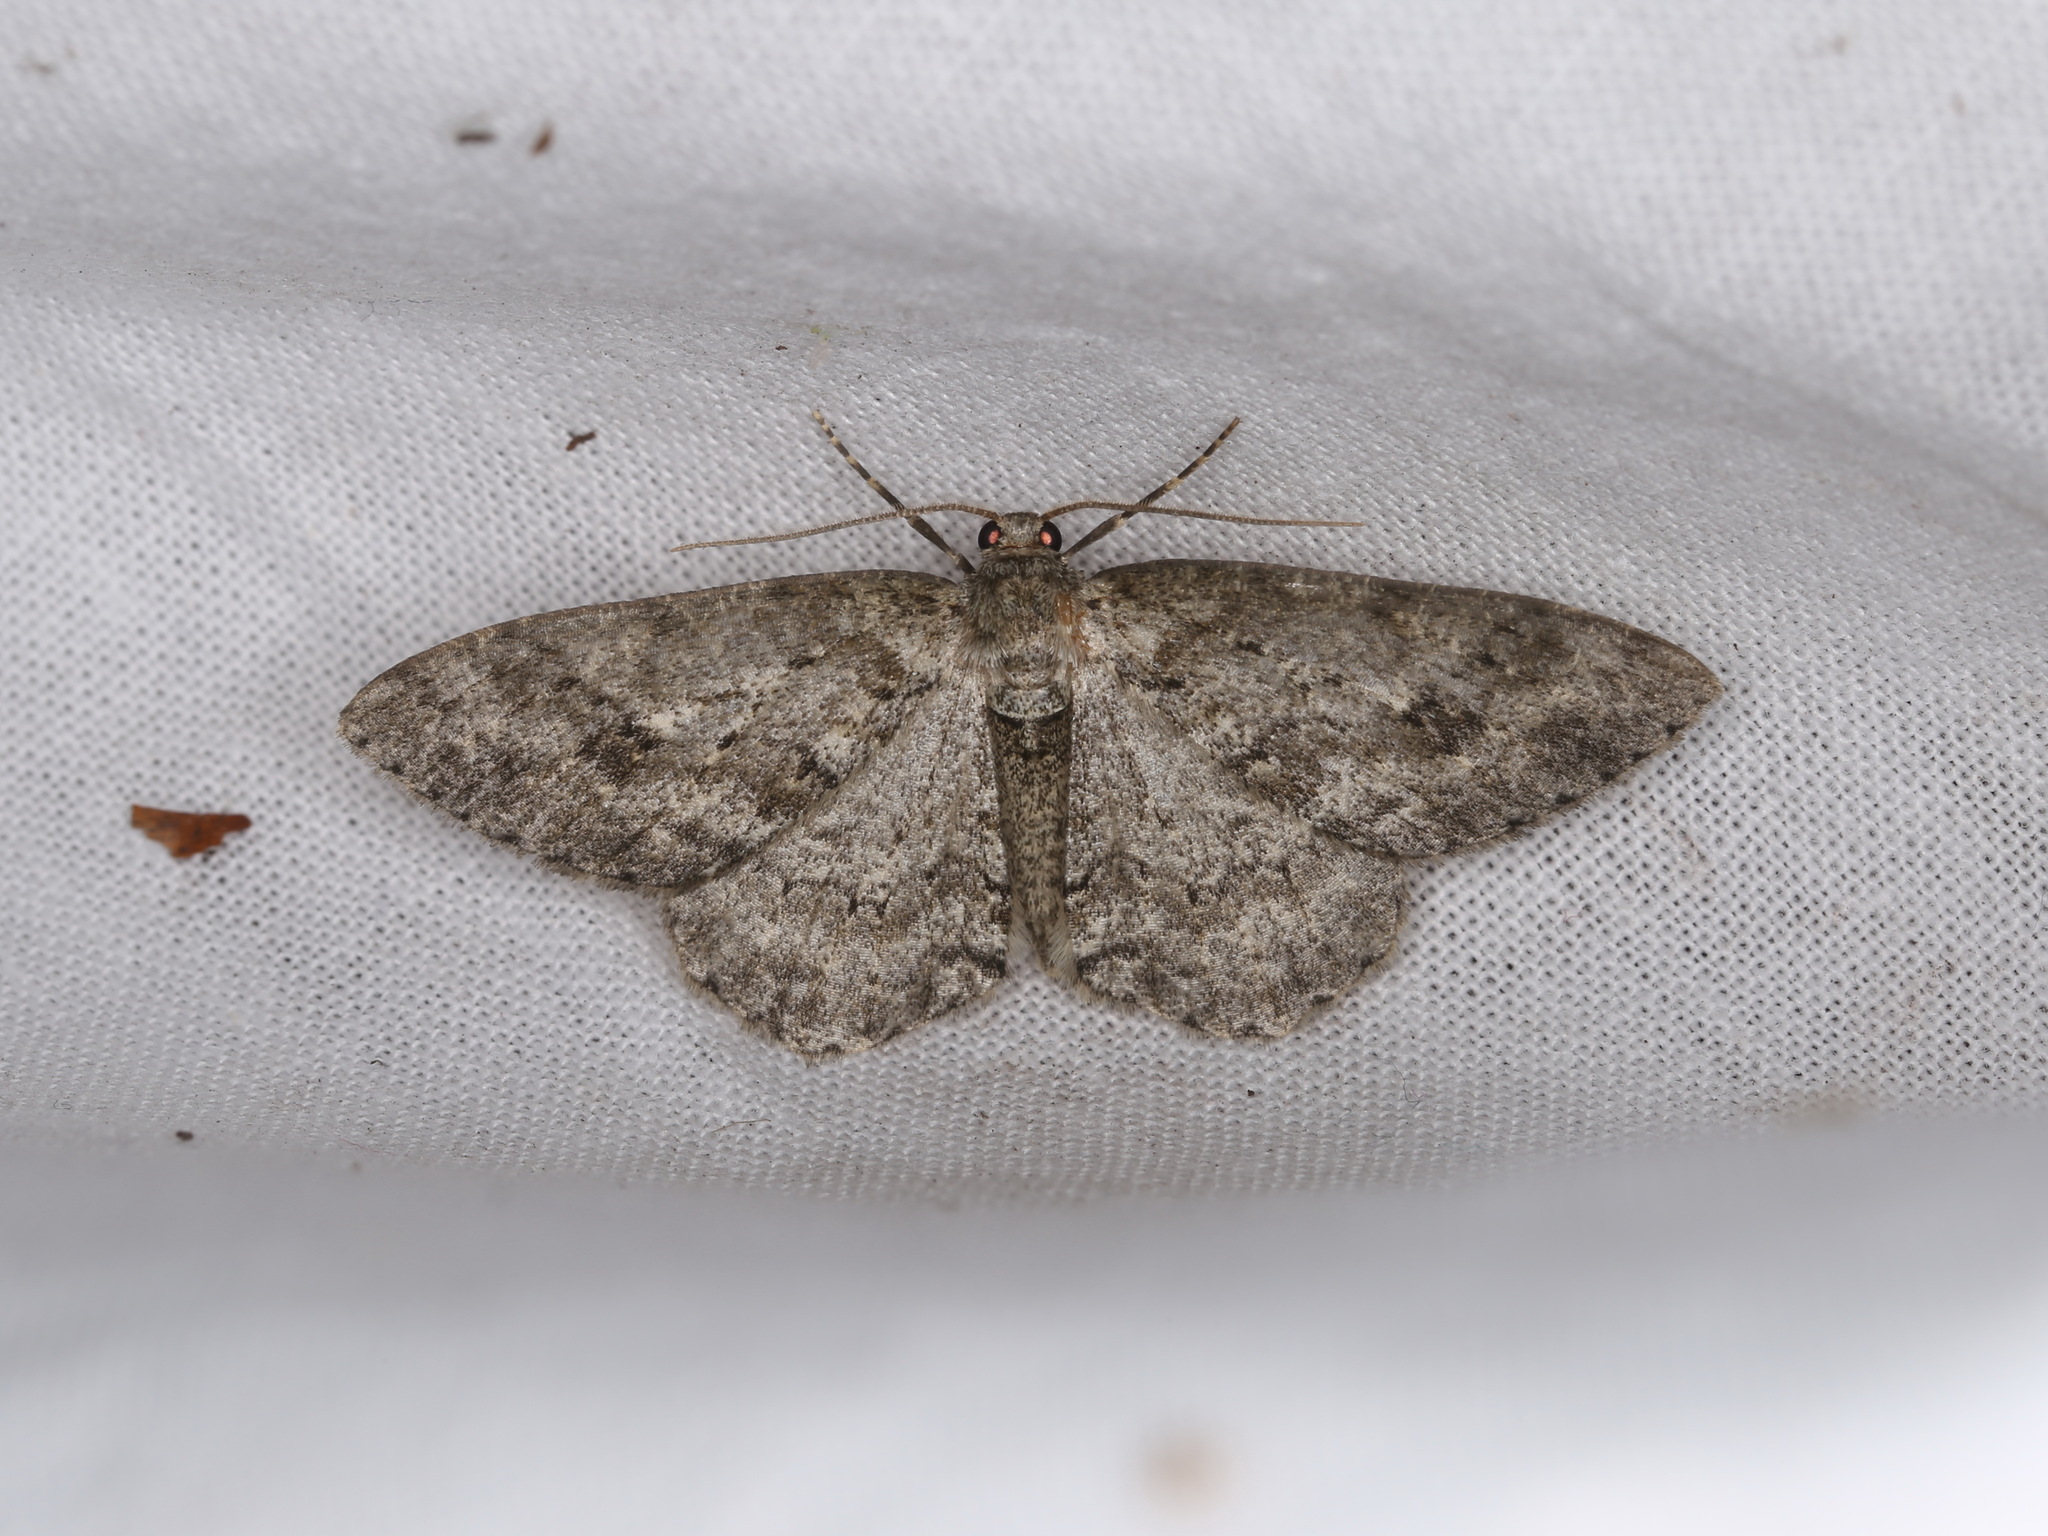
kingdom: Animalia
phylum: Arthropoda
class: Insecta
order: Lepidoptera
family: Geometridae
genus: Ectropis
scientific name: Ectropis crepuscularia
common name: Engrailed
